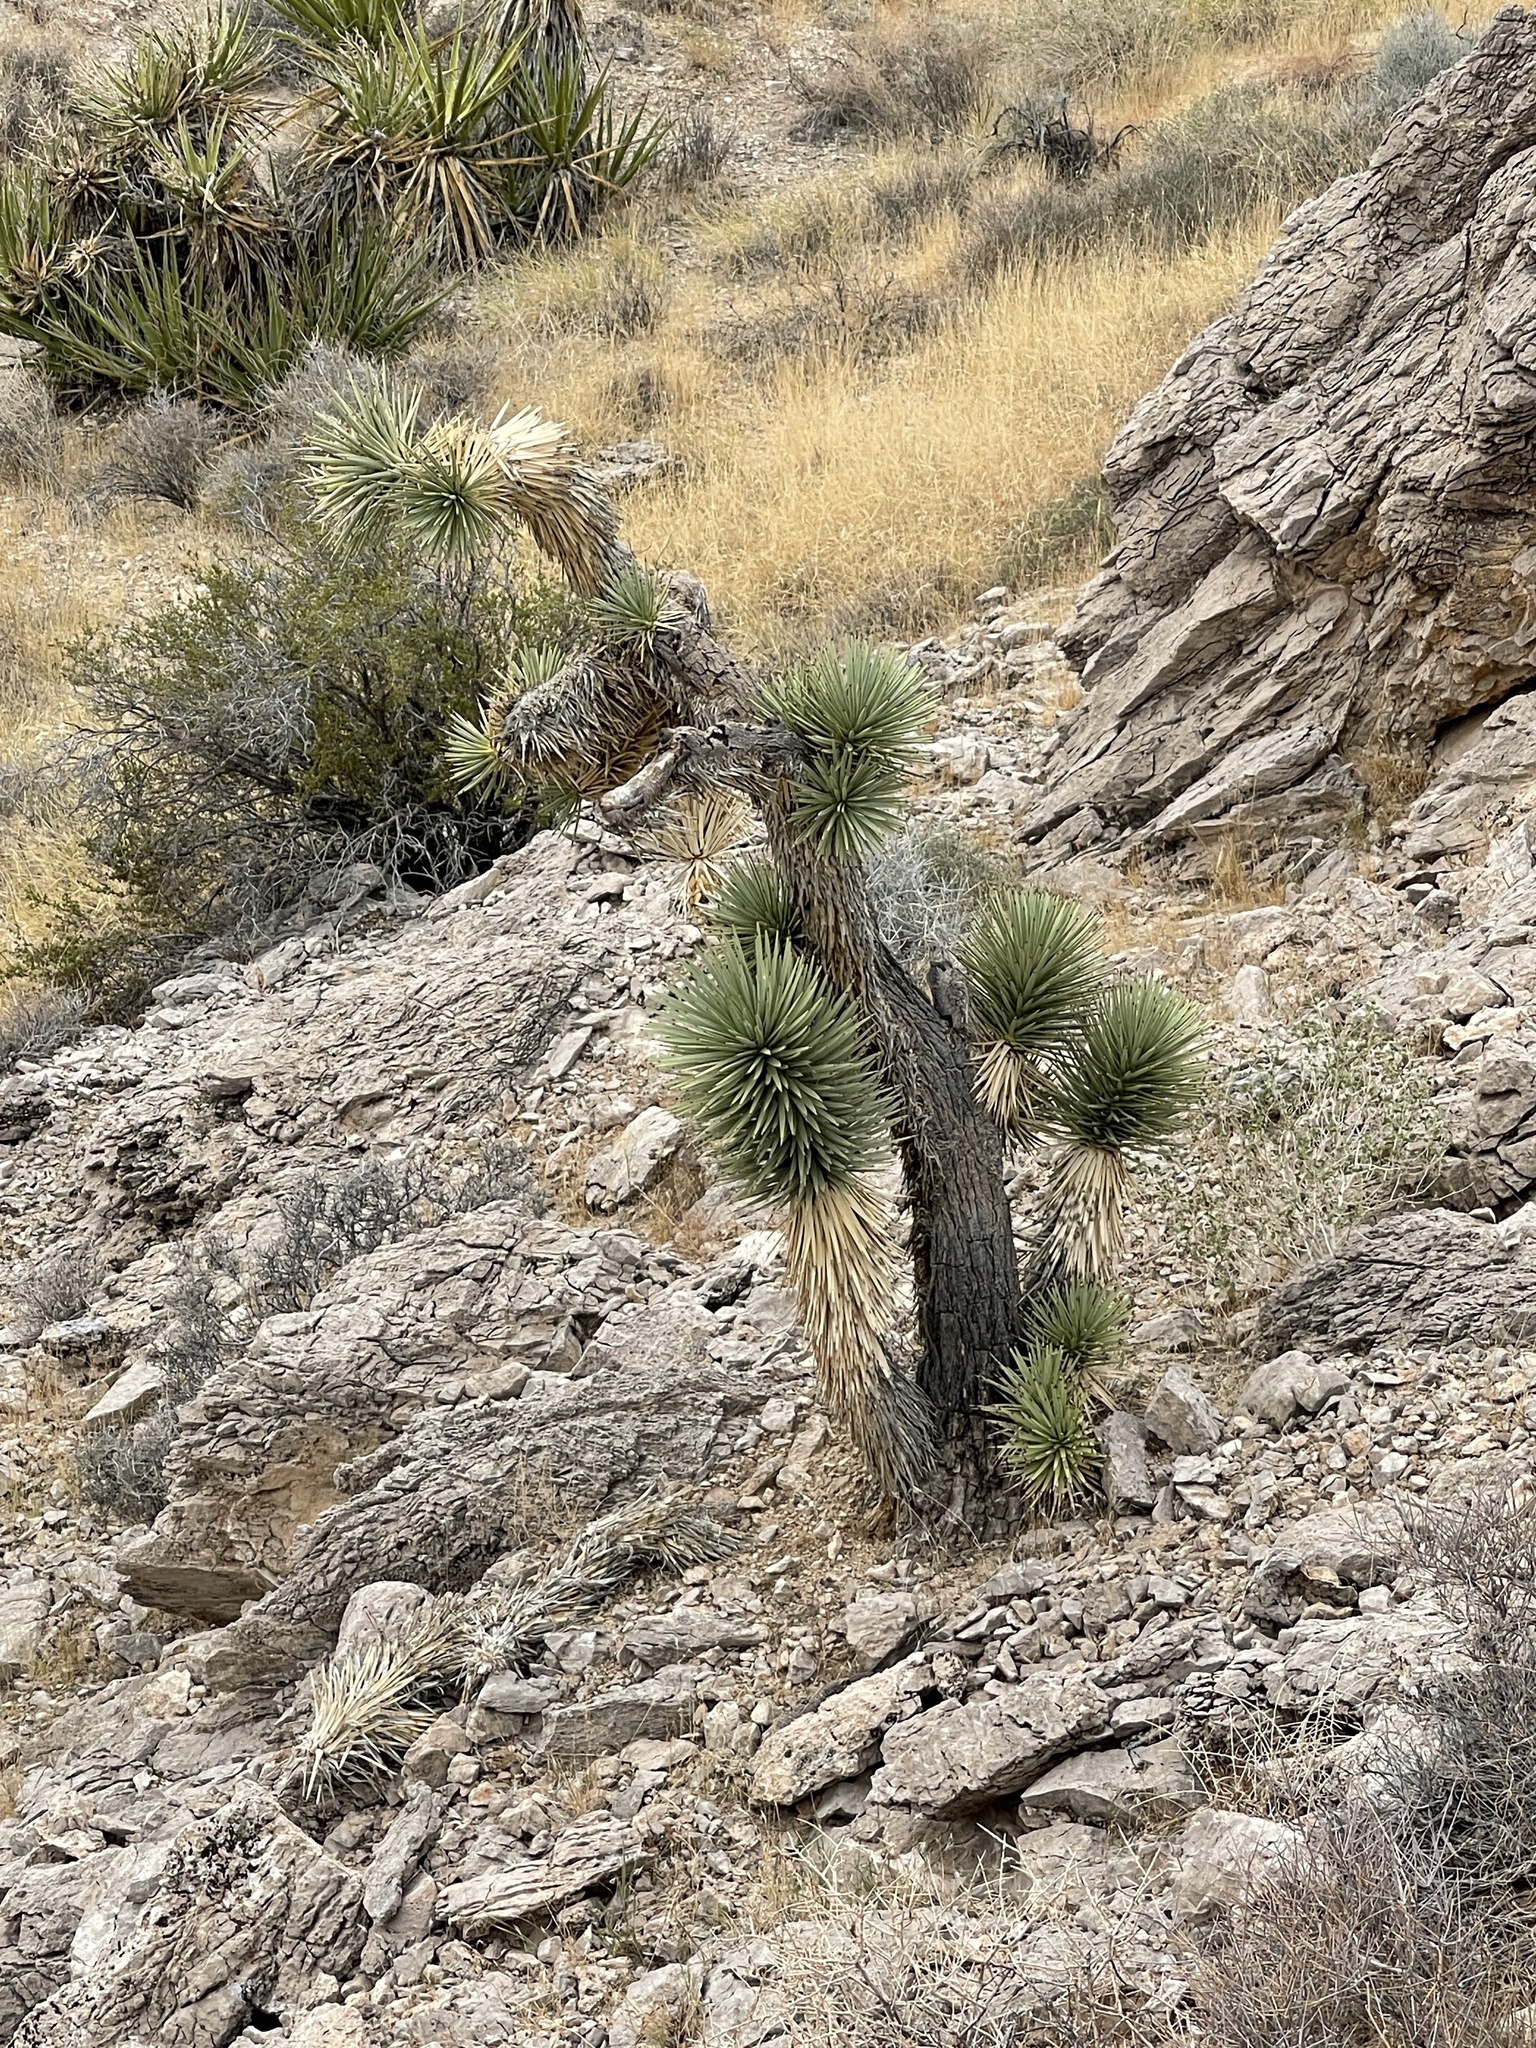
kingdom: Plantae
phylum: Tracheophyta
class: Liliopsida
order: Asparagales
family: Asparagaceae
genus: Yucca
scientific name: Yucca brevifolia
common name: Joshua tree
